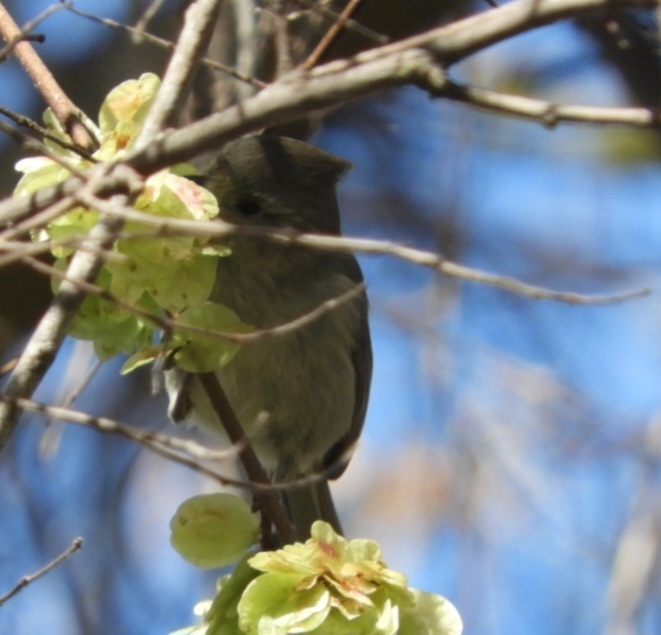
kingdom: Animalia
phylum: Chordata
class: Aves
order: Passeriformes
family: Paridae
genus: Baeolophus
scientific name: Baeolophus inornatus
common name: Oak titmouse
